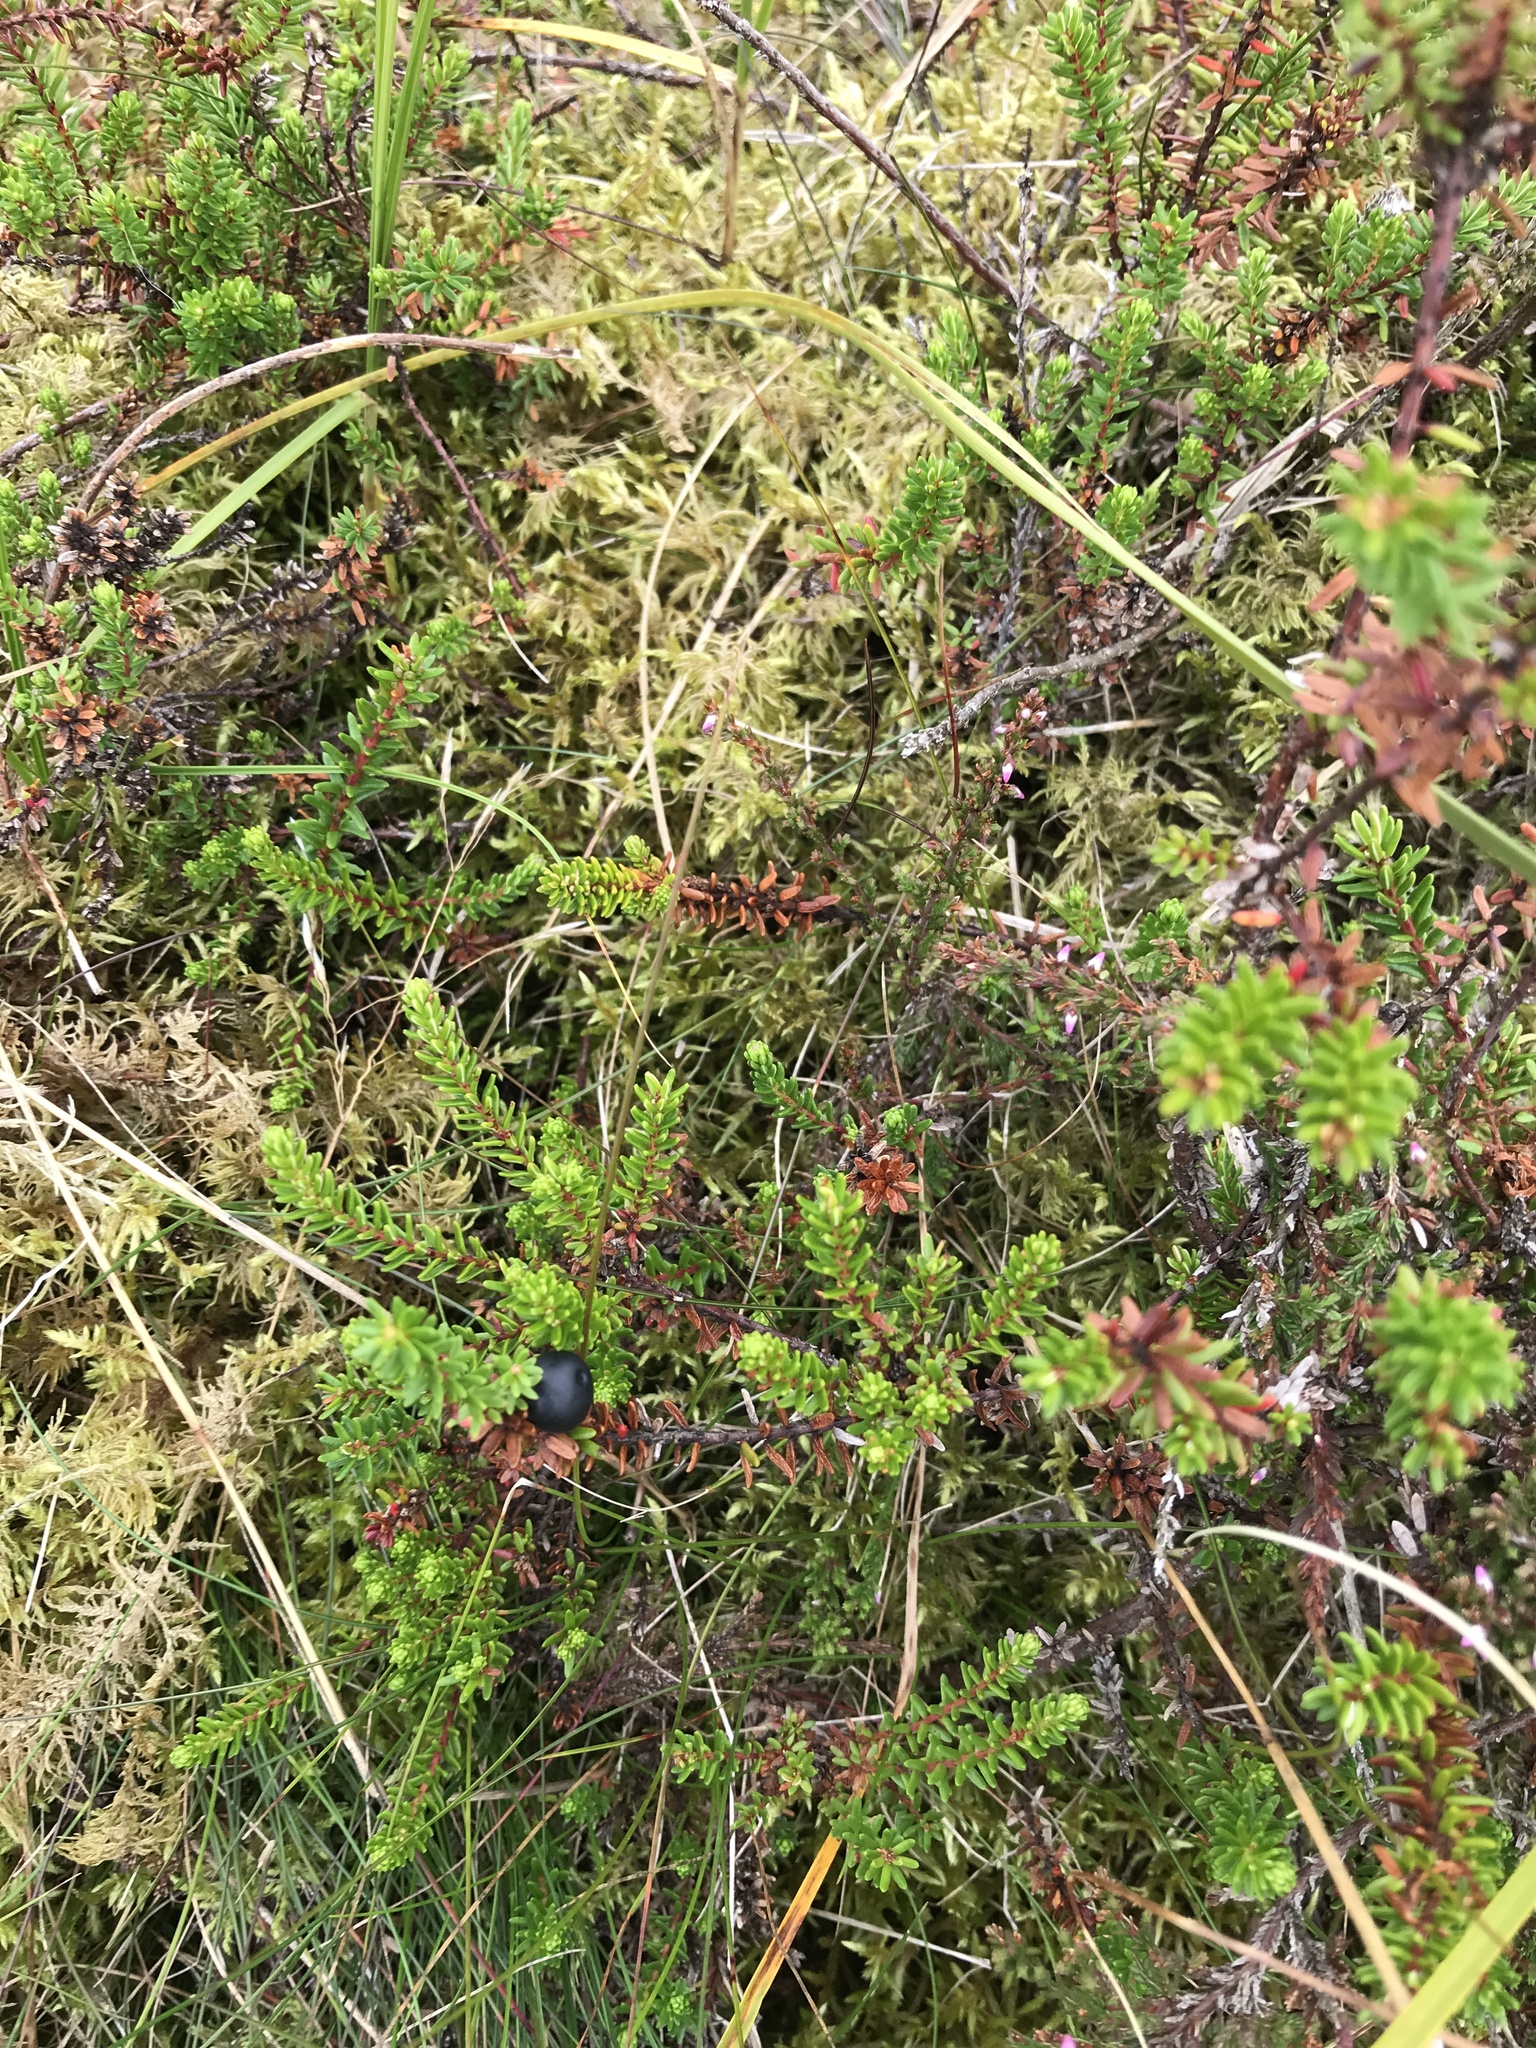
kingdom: Plantae
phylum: Tracheophyta
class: Magnoliopsida
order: Ericales
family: Ericaceae
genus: Empetrum
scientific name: Empetrum nigrum
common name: Black crowberry
